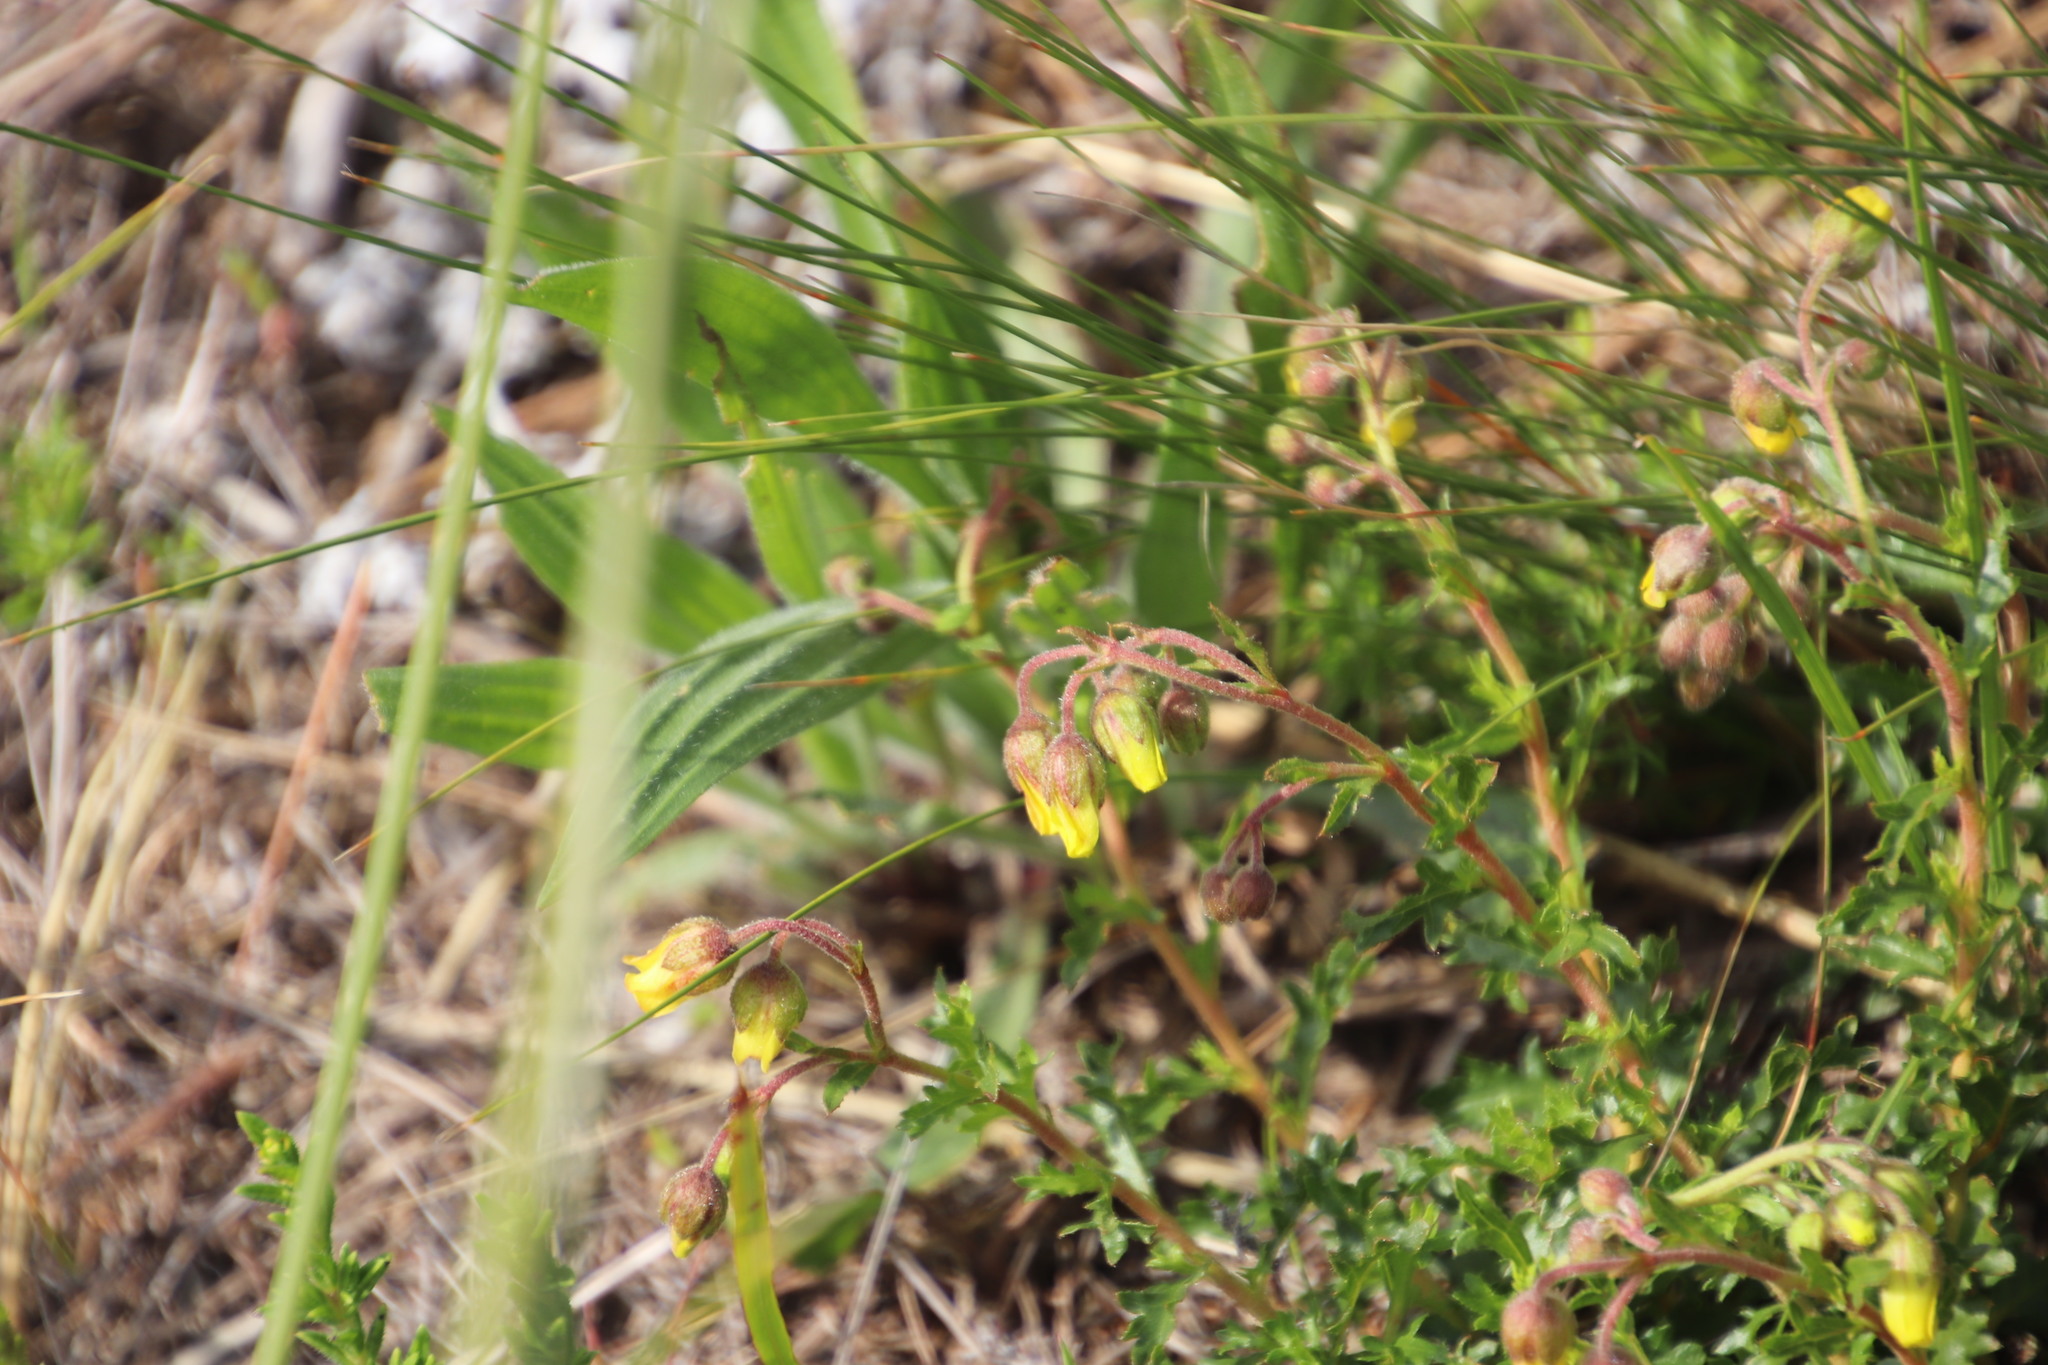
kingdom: Plantae
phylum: Tracheophyta
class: Magnoliopsida
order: Malvales
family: Malvaceae
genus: Hermannia
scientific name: Hermannia grossularifolia
